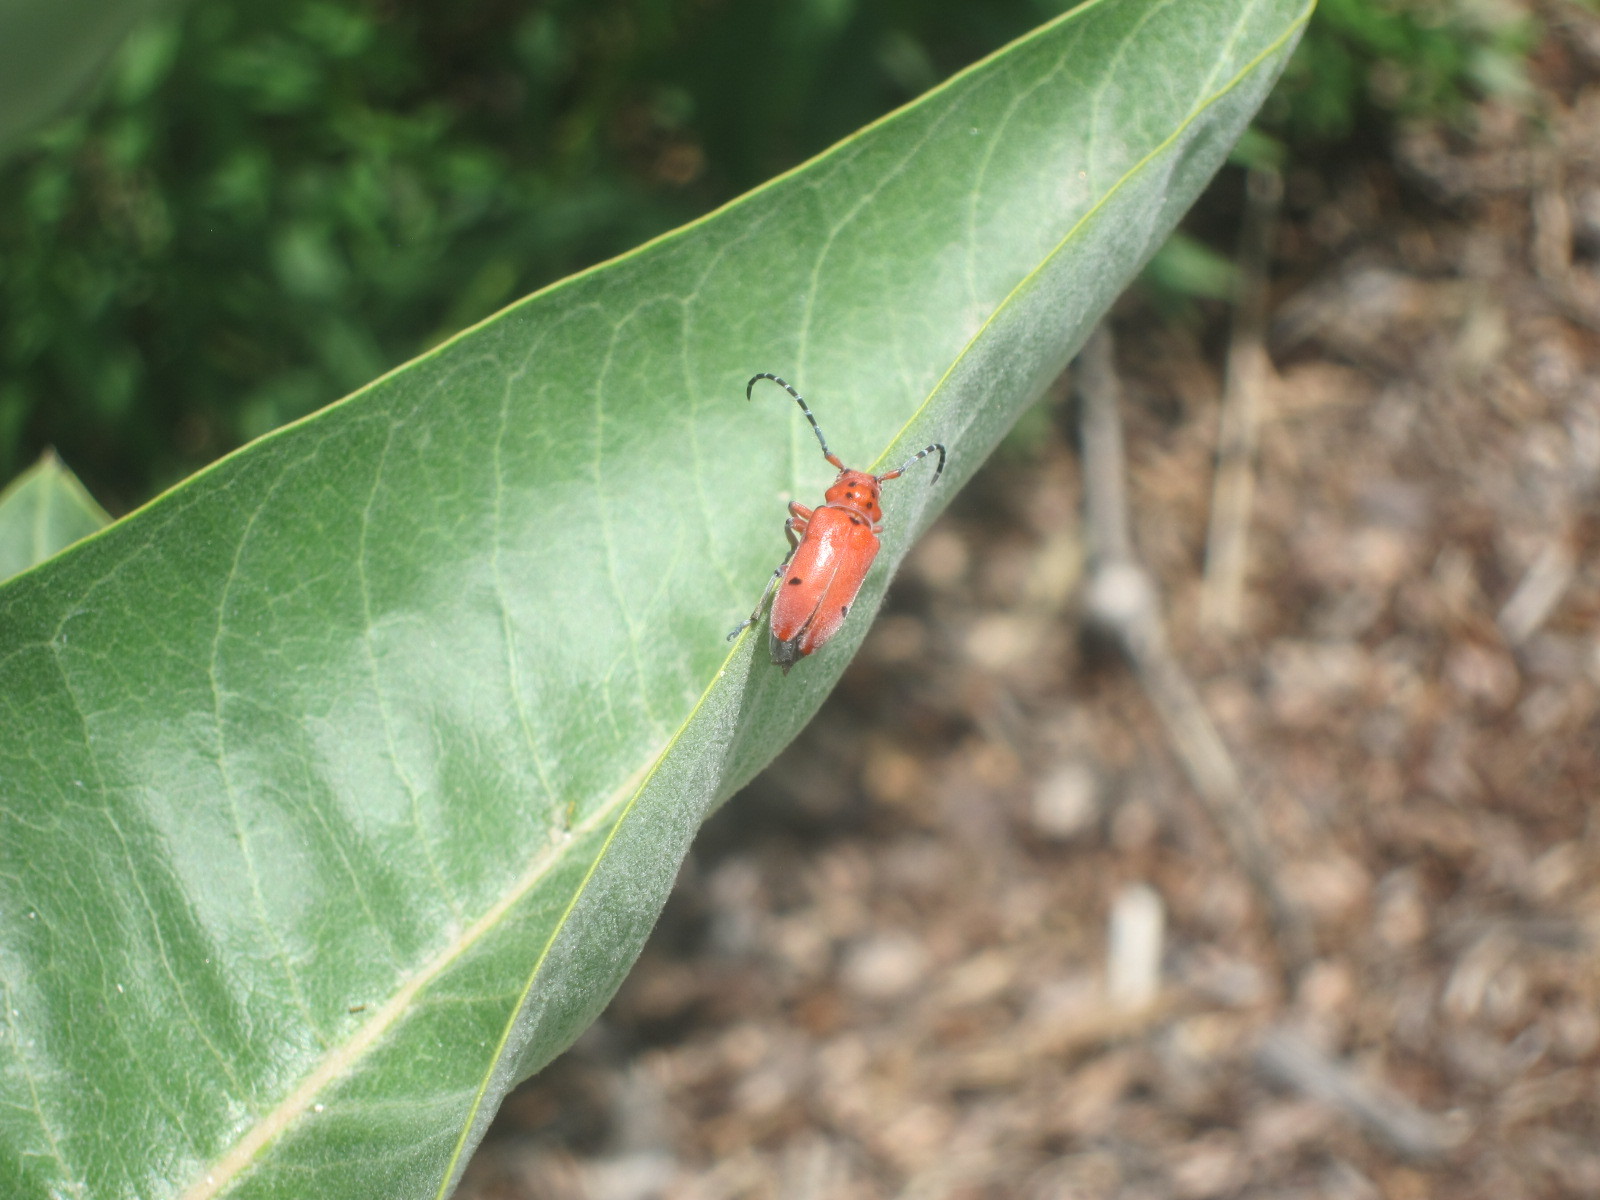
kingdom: Animalia
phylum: Arthropoda
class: Insecta
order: Coleoptera
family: Cerambycidae
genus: Tetraopes
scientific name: Tetraopes femoratus
